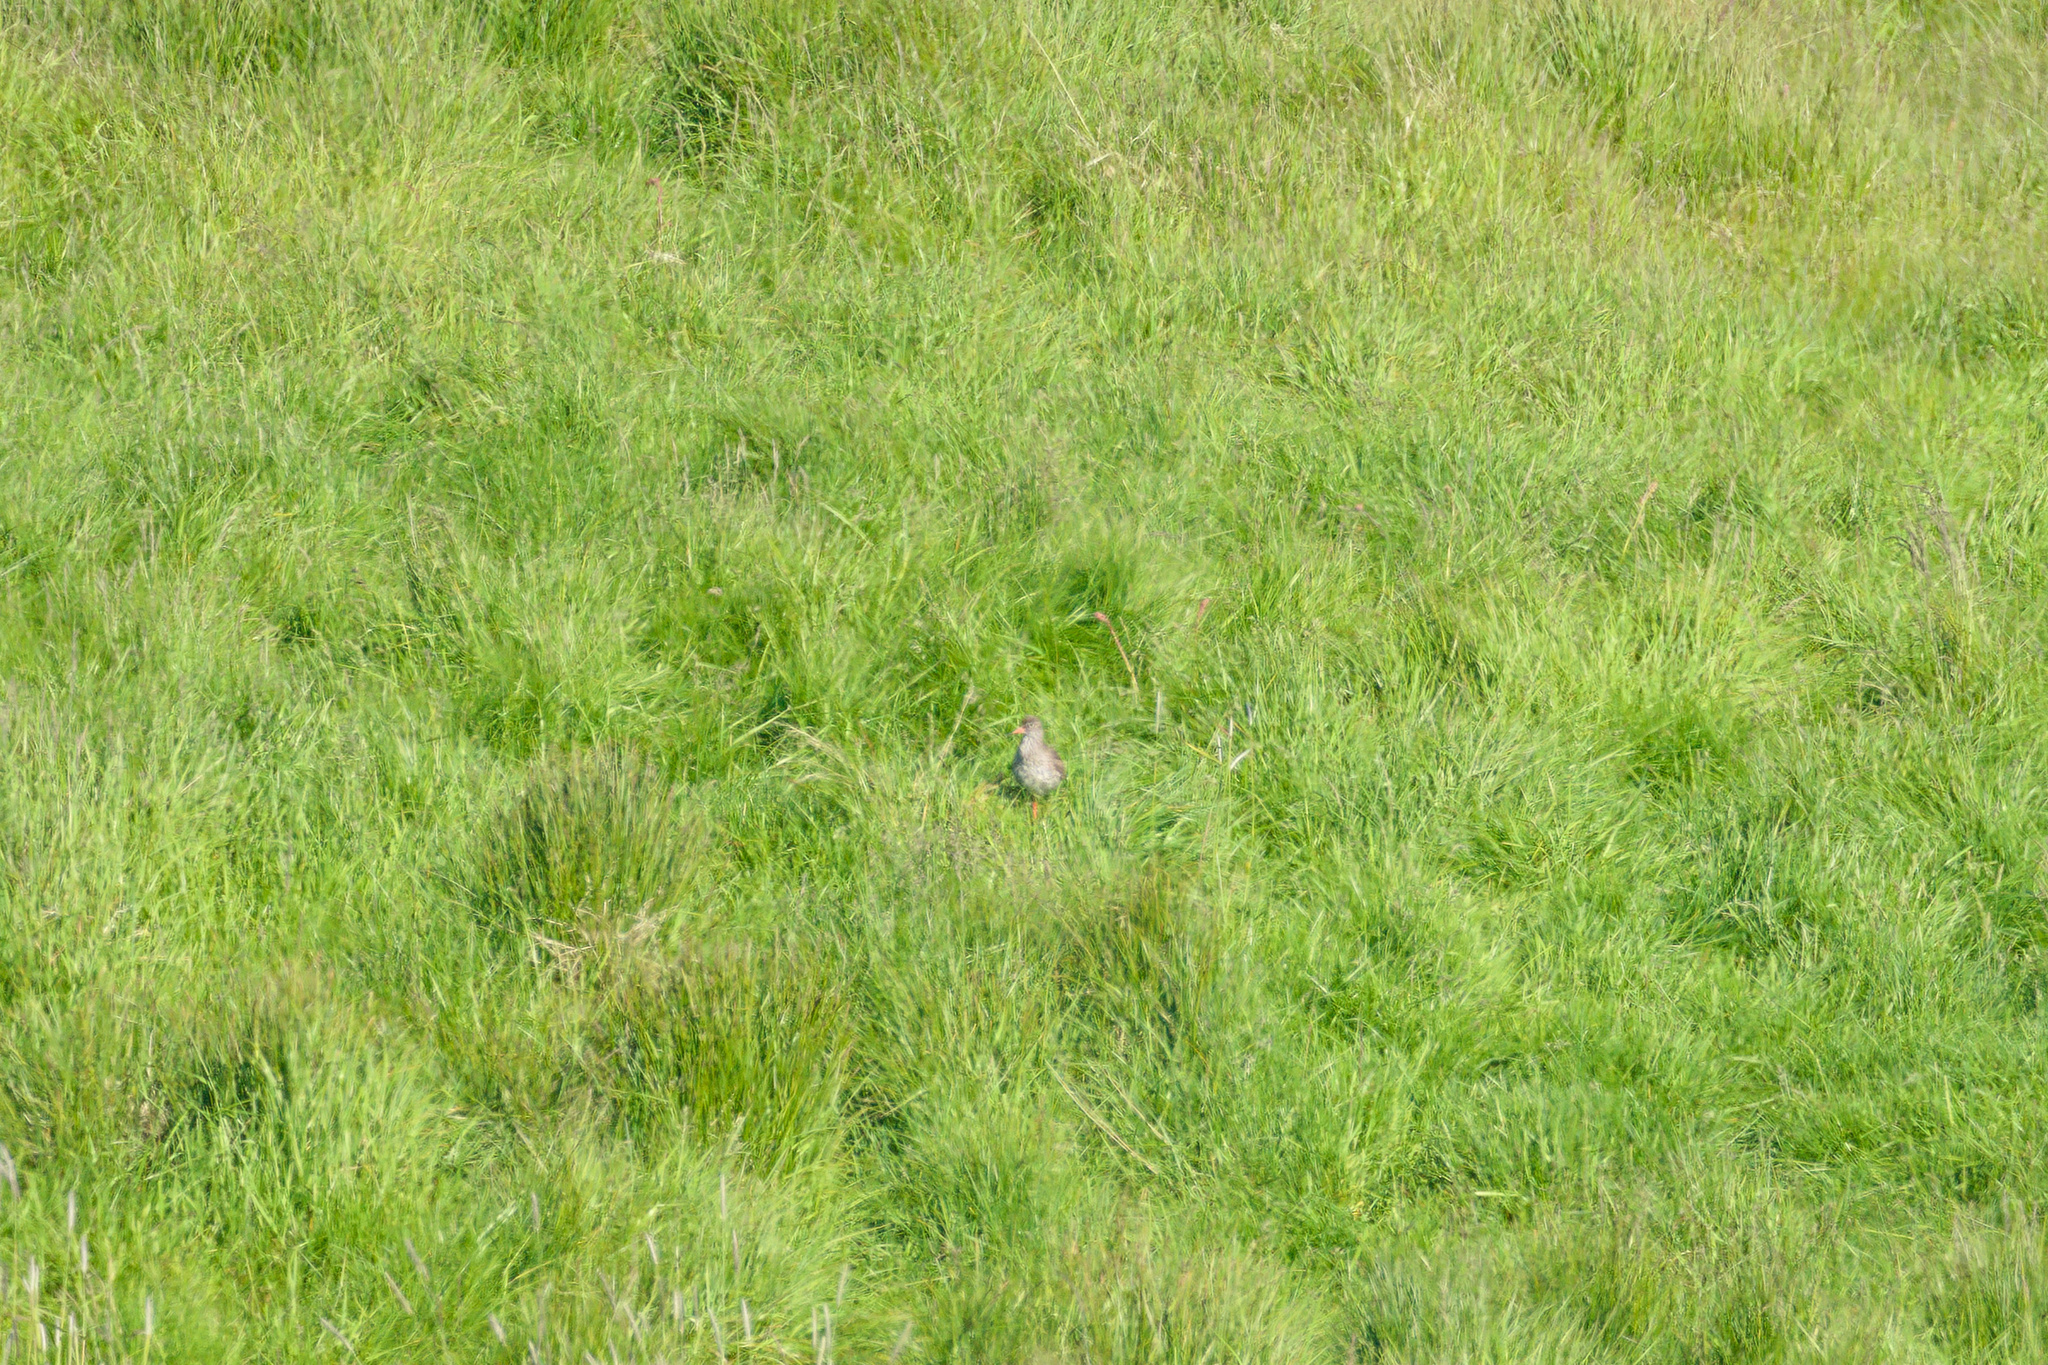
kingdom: Animalia
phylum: Chordata
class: Aves
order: Charadriiformes
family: Scolopacidae
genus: Tringa
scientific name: Tringa totanus
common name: Common redshank
